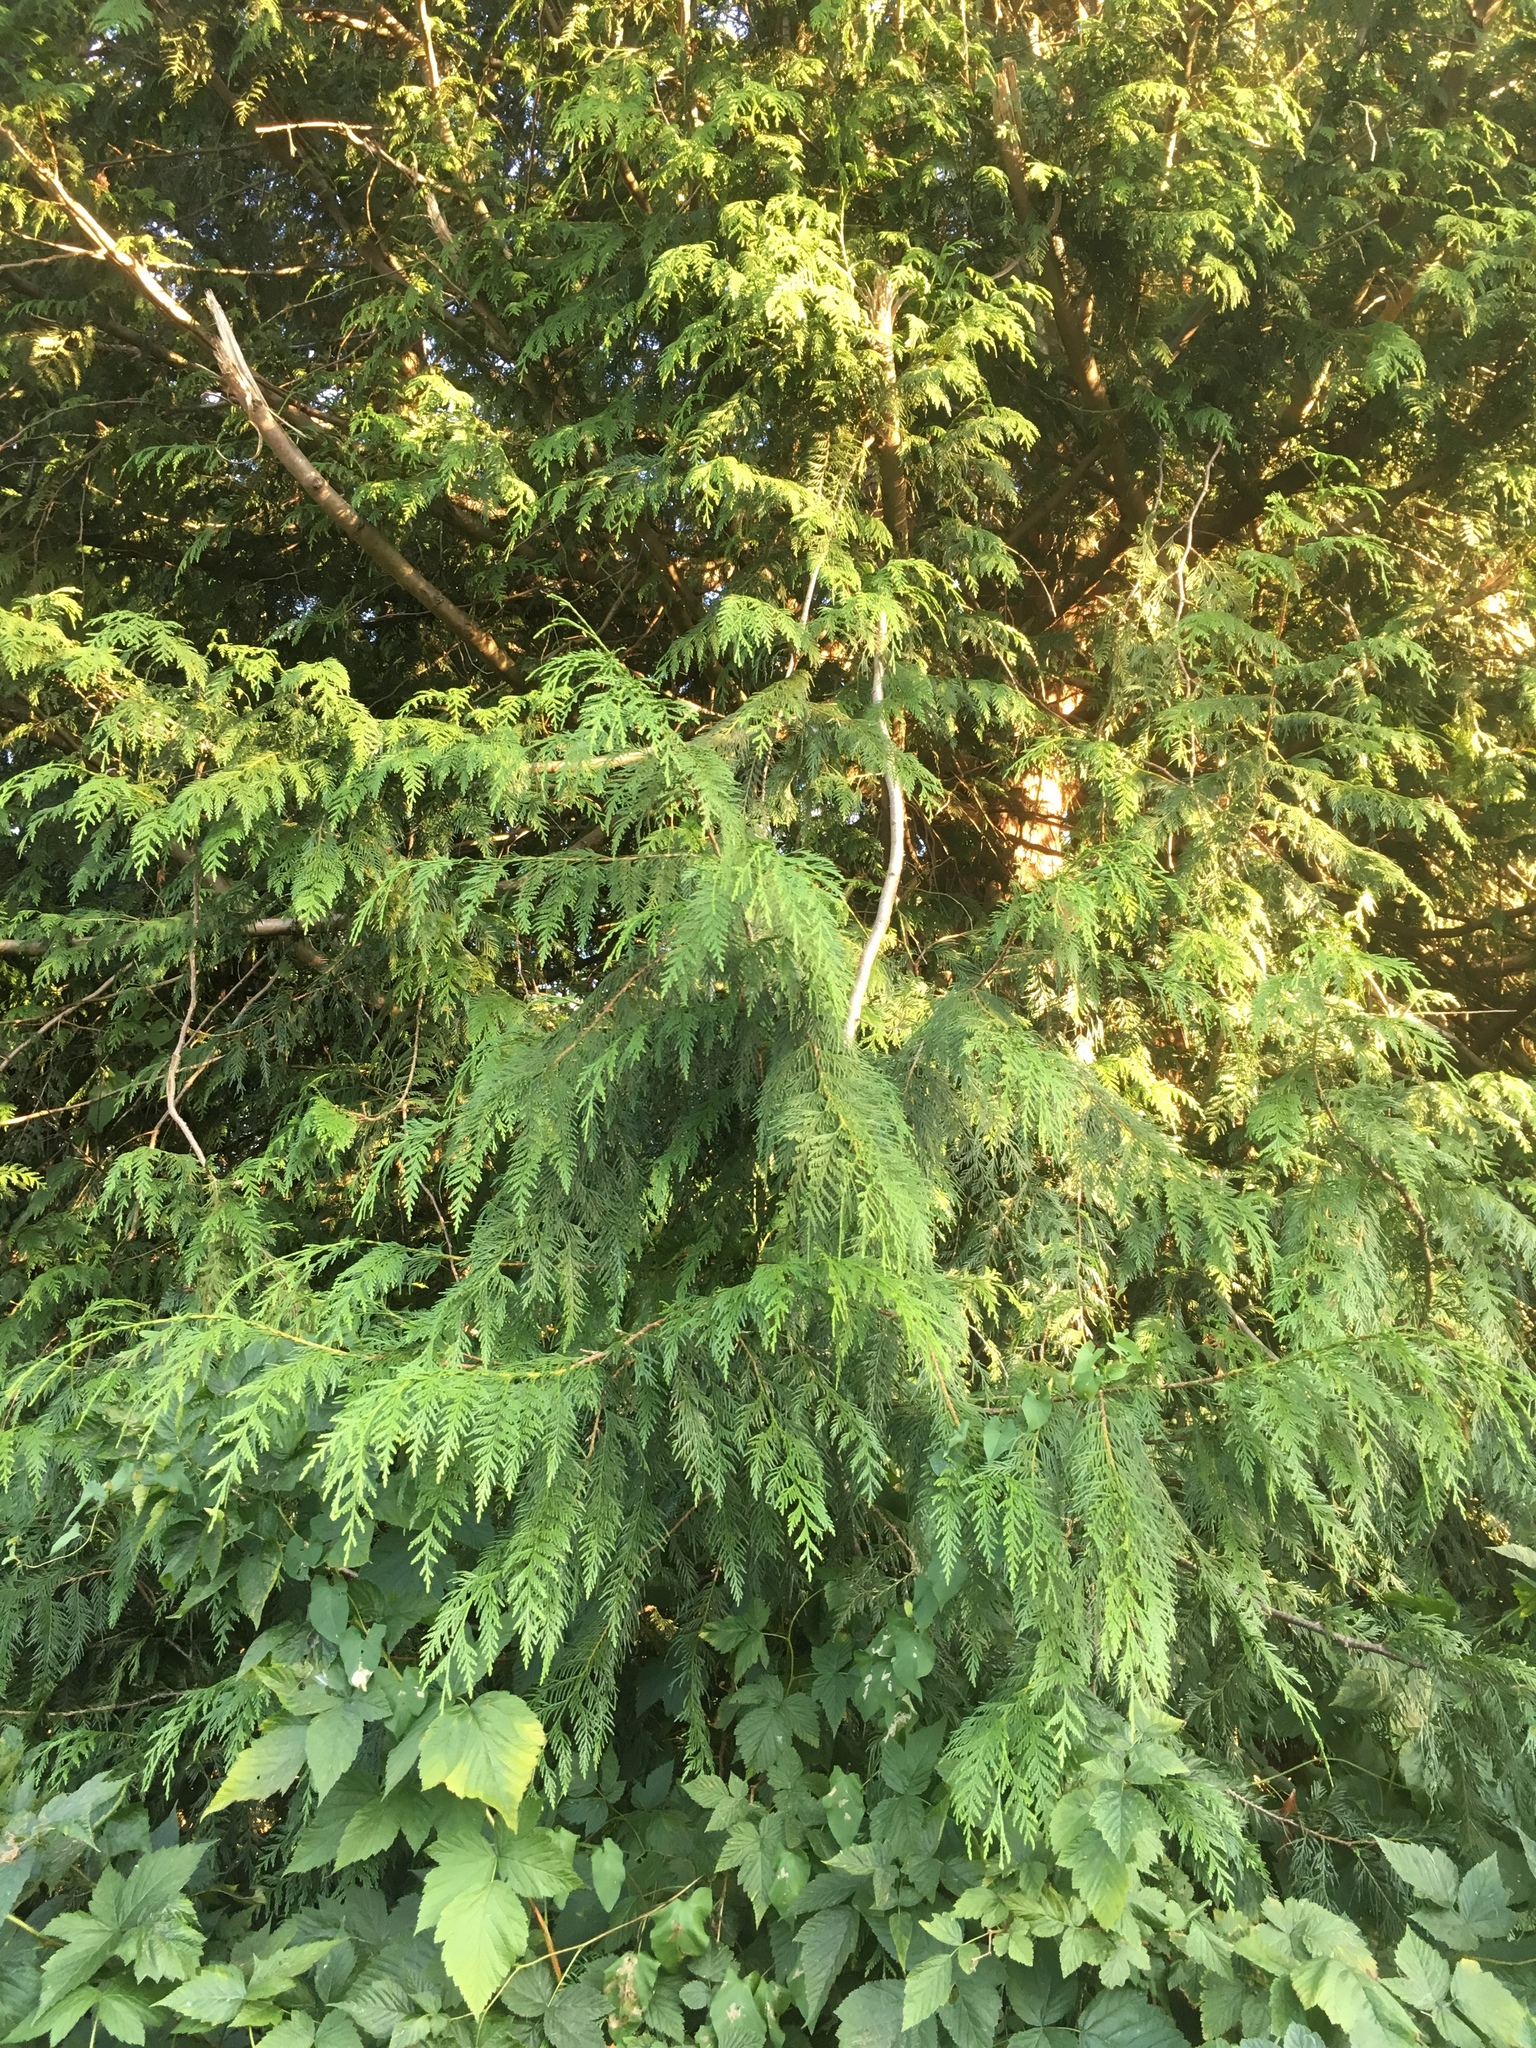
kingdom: Plantae
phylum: Tracheophyta
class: Pinopsida
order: Pinales
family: Cupressaceae
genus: Thuja
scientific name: Thuja plicata
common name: Western red-cedar
